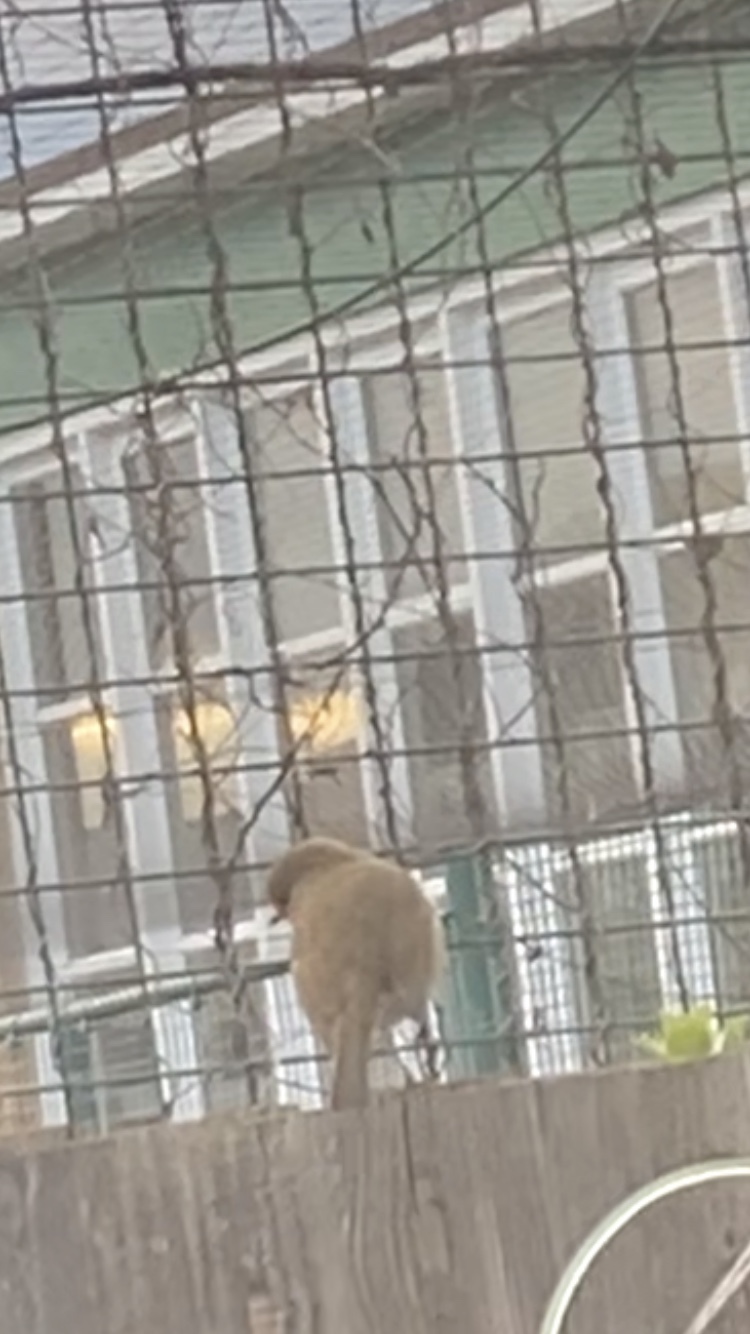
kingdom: Animalia
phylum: Chordata
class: Aves
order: Passeriformes
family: Muscicapidae
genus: Erithacus
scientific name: Erithacus rubecula
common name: European robin
